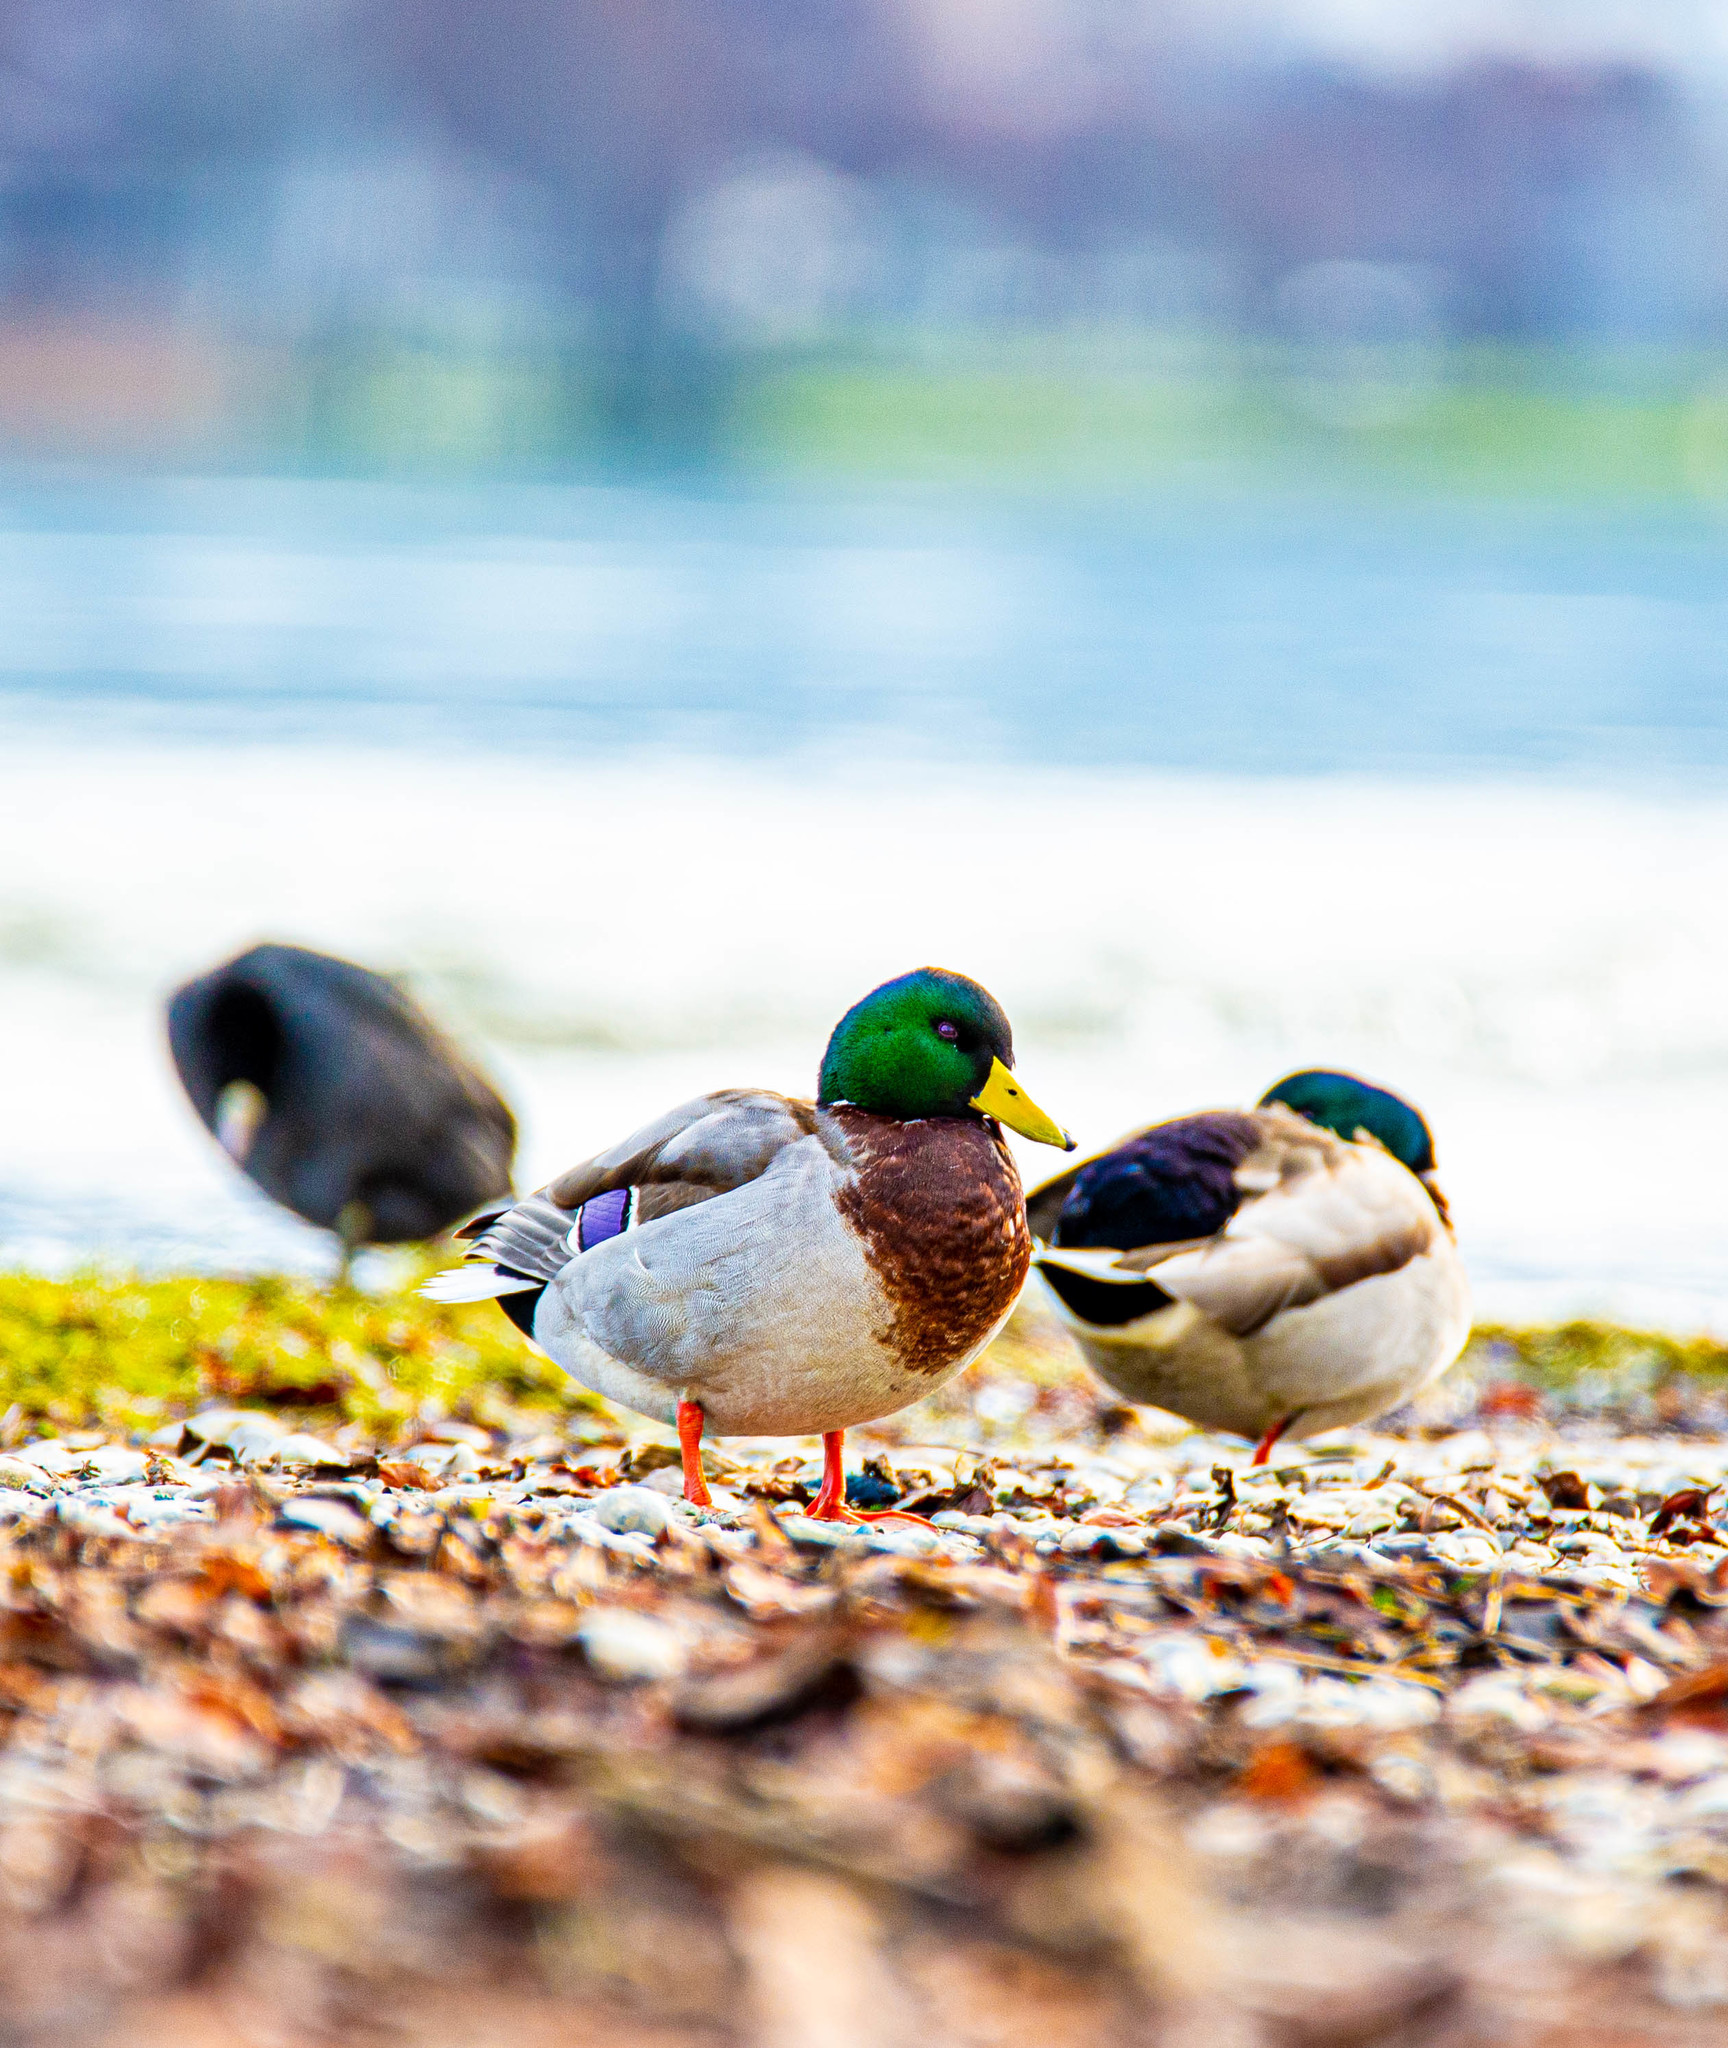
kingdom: Animalia
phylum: Chordata
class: Aves
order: Anseriformes
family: Anatidae
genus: Anas
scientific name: Anas platyrhynchos
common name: Mallard
